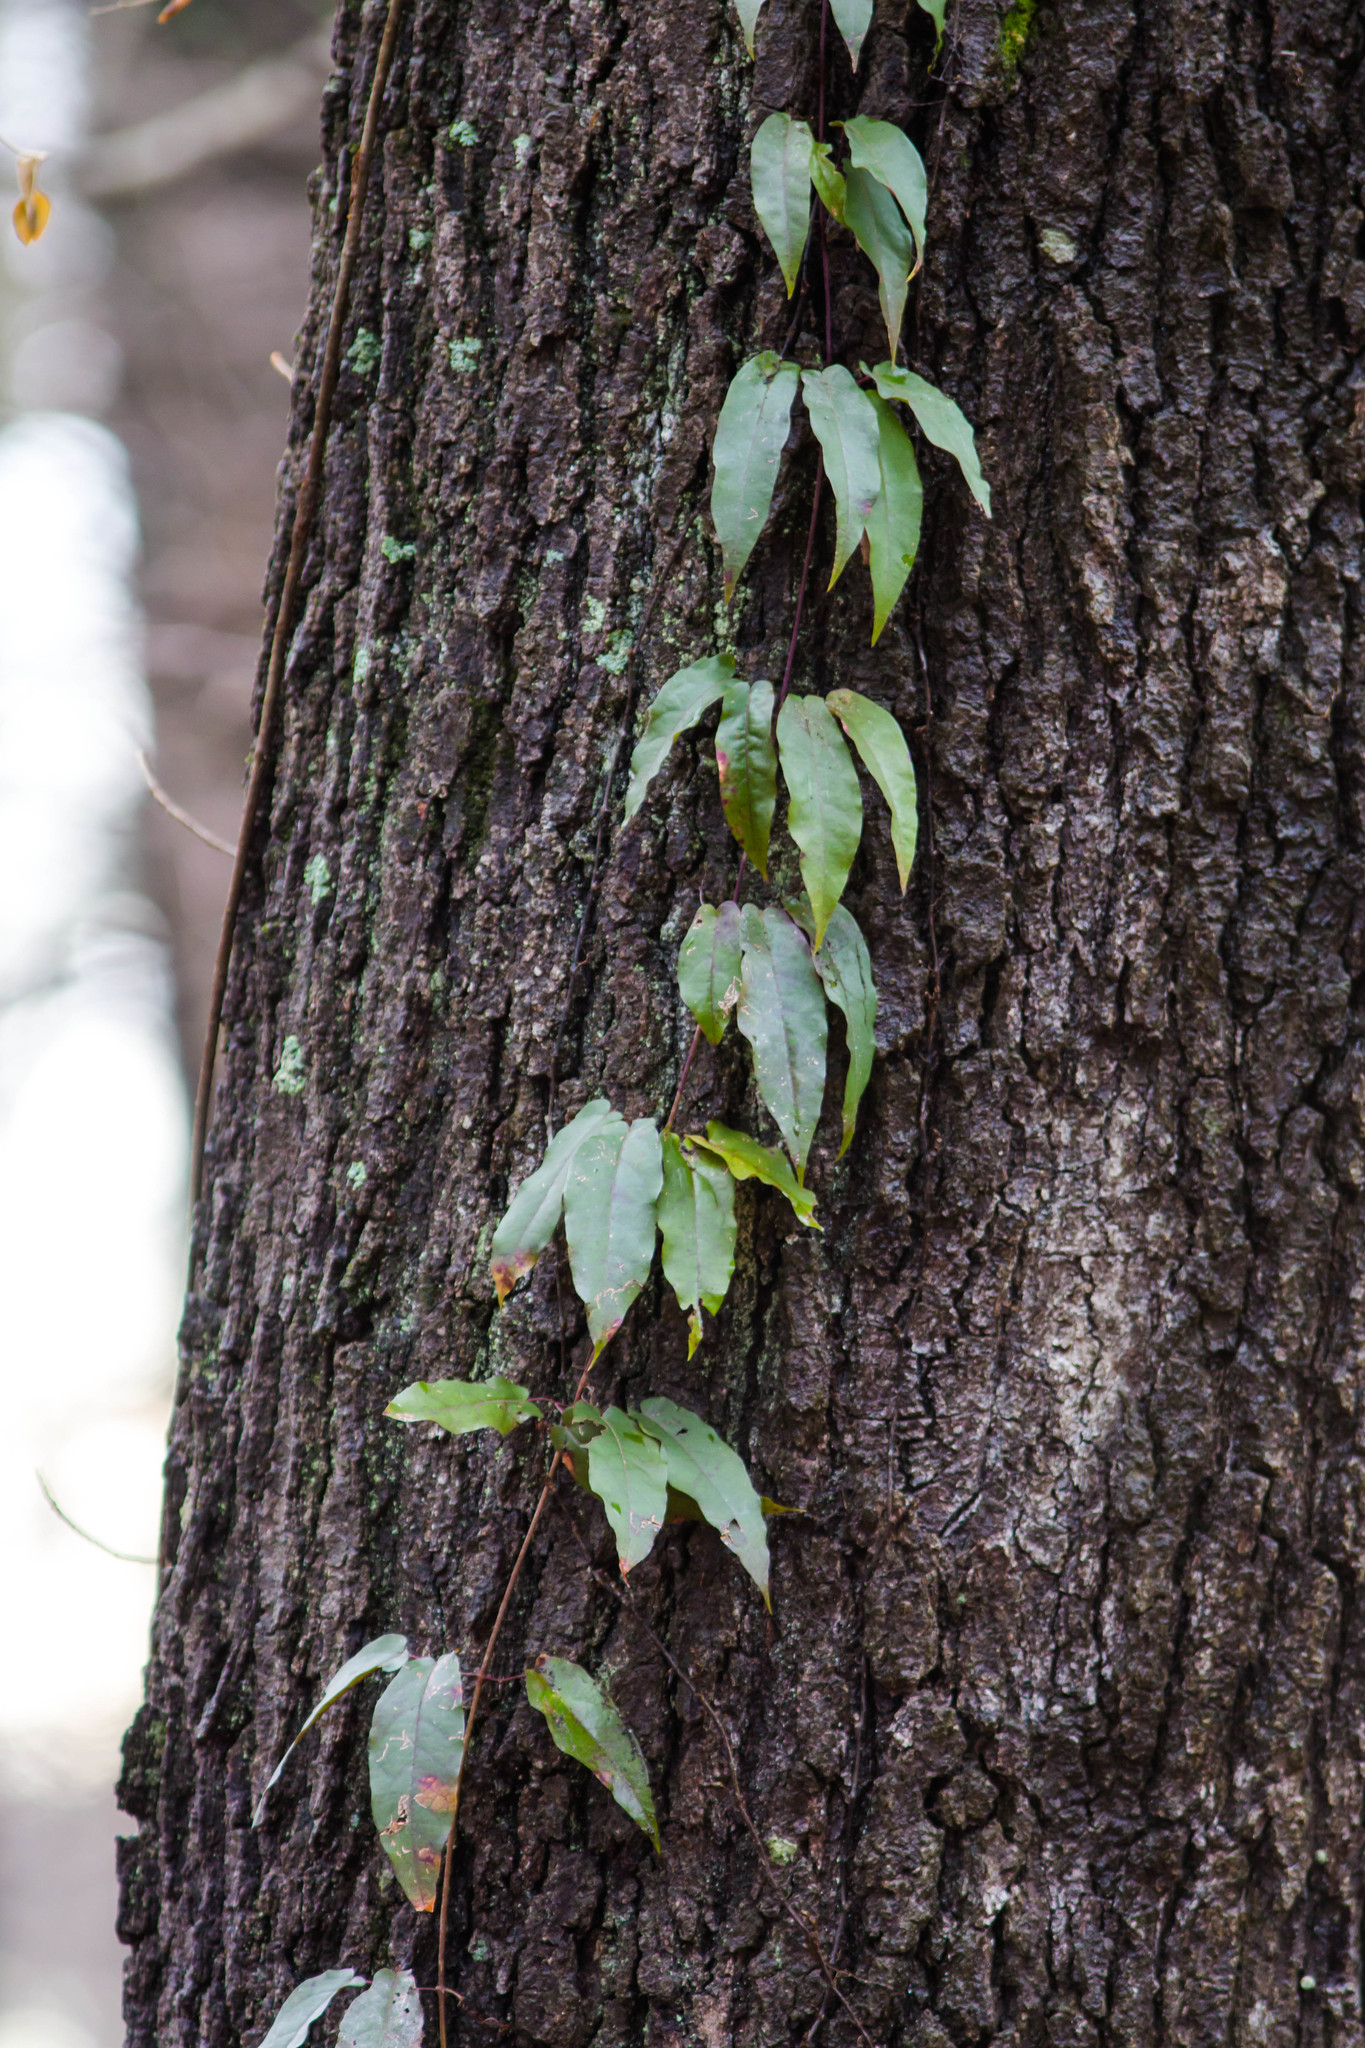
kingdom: Plantae
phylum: Tracheophyta
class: Magnoliopsida
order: Lamiales
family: Bignoniaceae
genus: Bignonia
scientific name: Bignonia capreolata
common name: Crossvine
